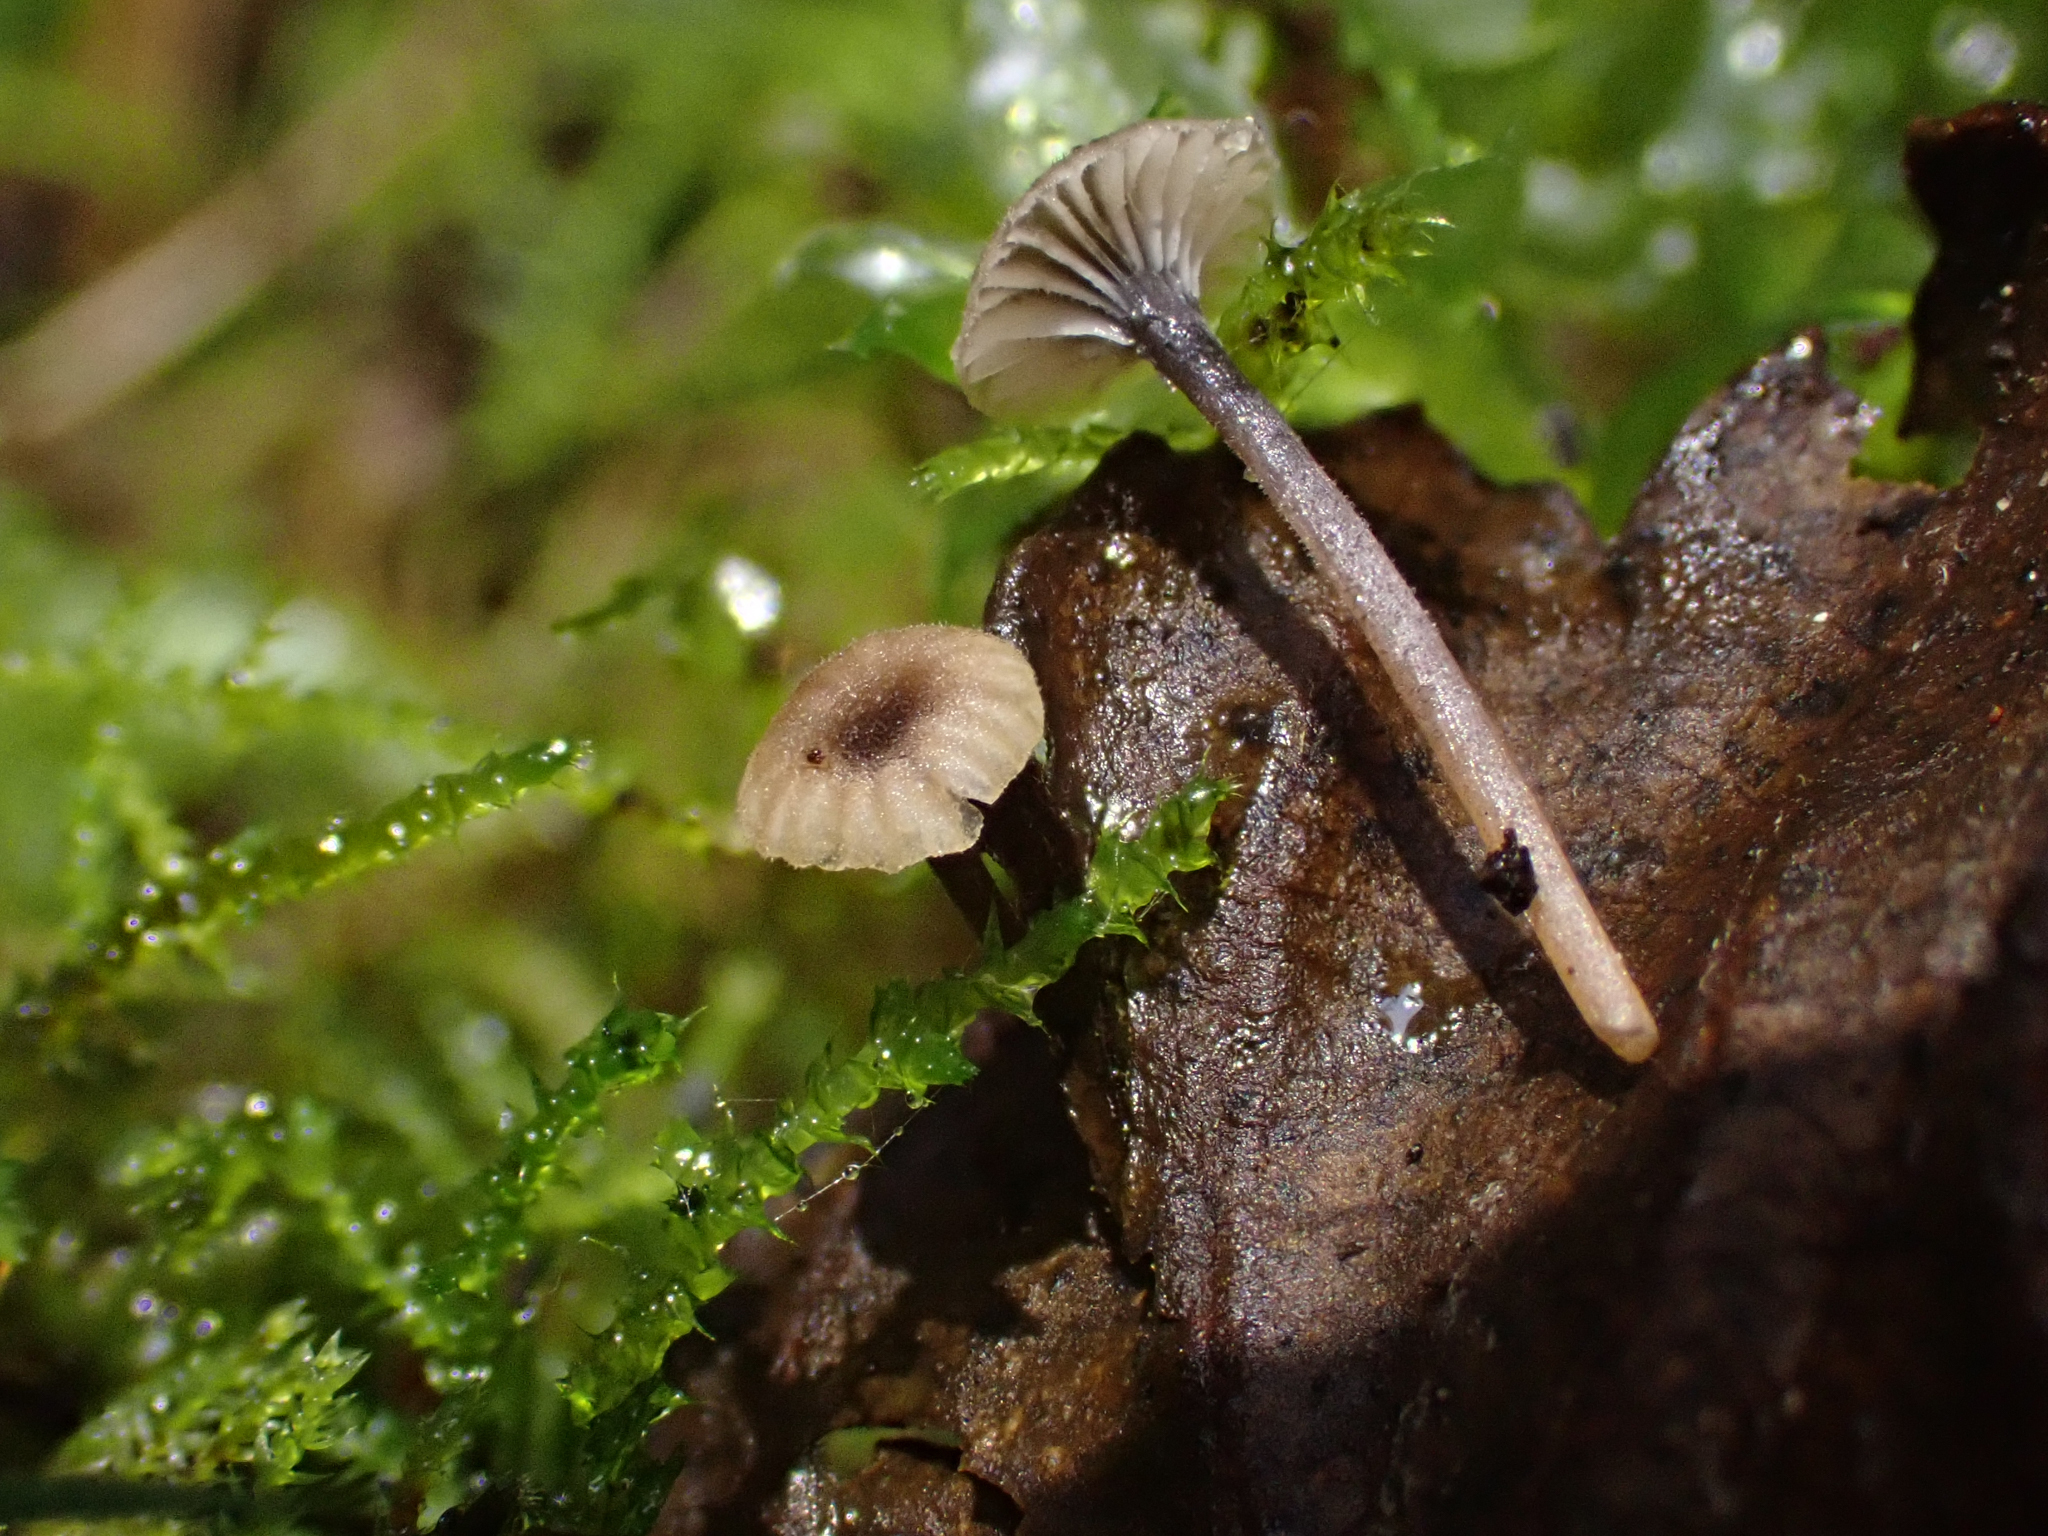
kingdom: Fungi
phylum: Basidiomycota
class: Agaricomycetes
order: Hymenochaetales
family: Rickenellaceae
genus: Rickenella
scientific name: Rickenella swartzii
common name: Collared mosscap
